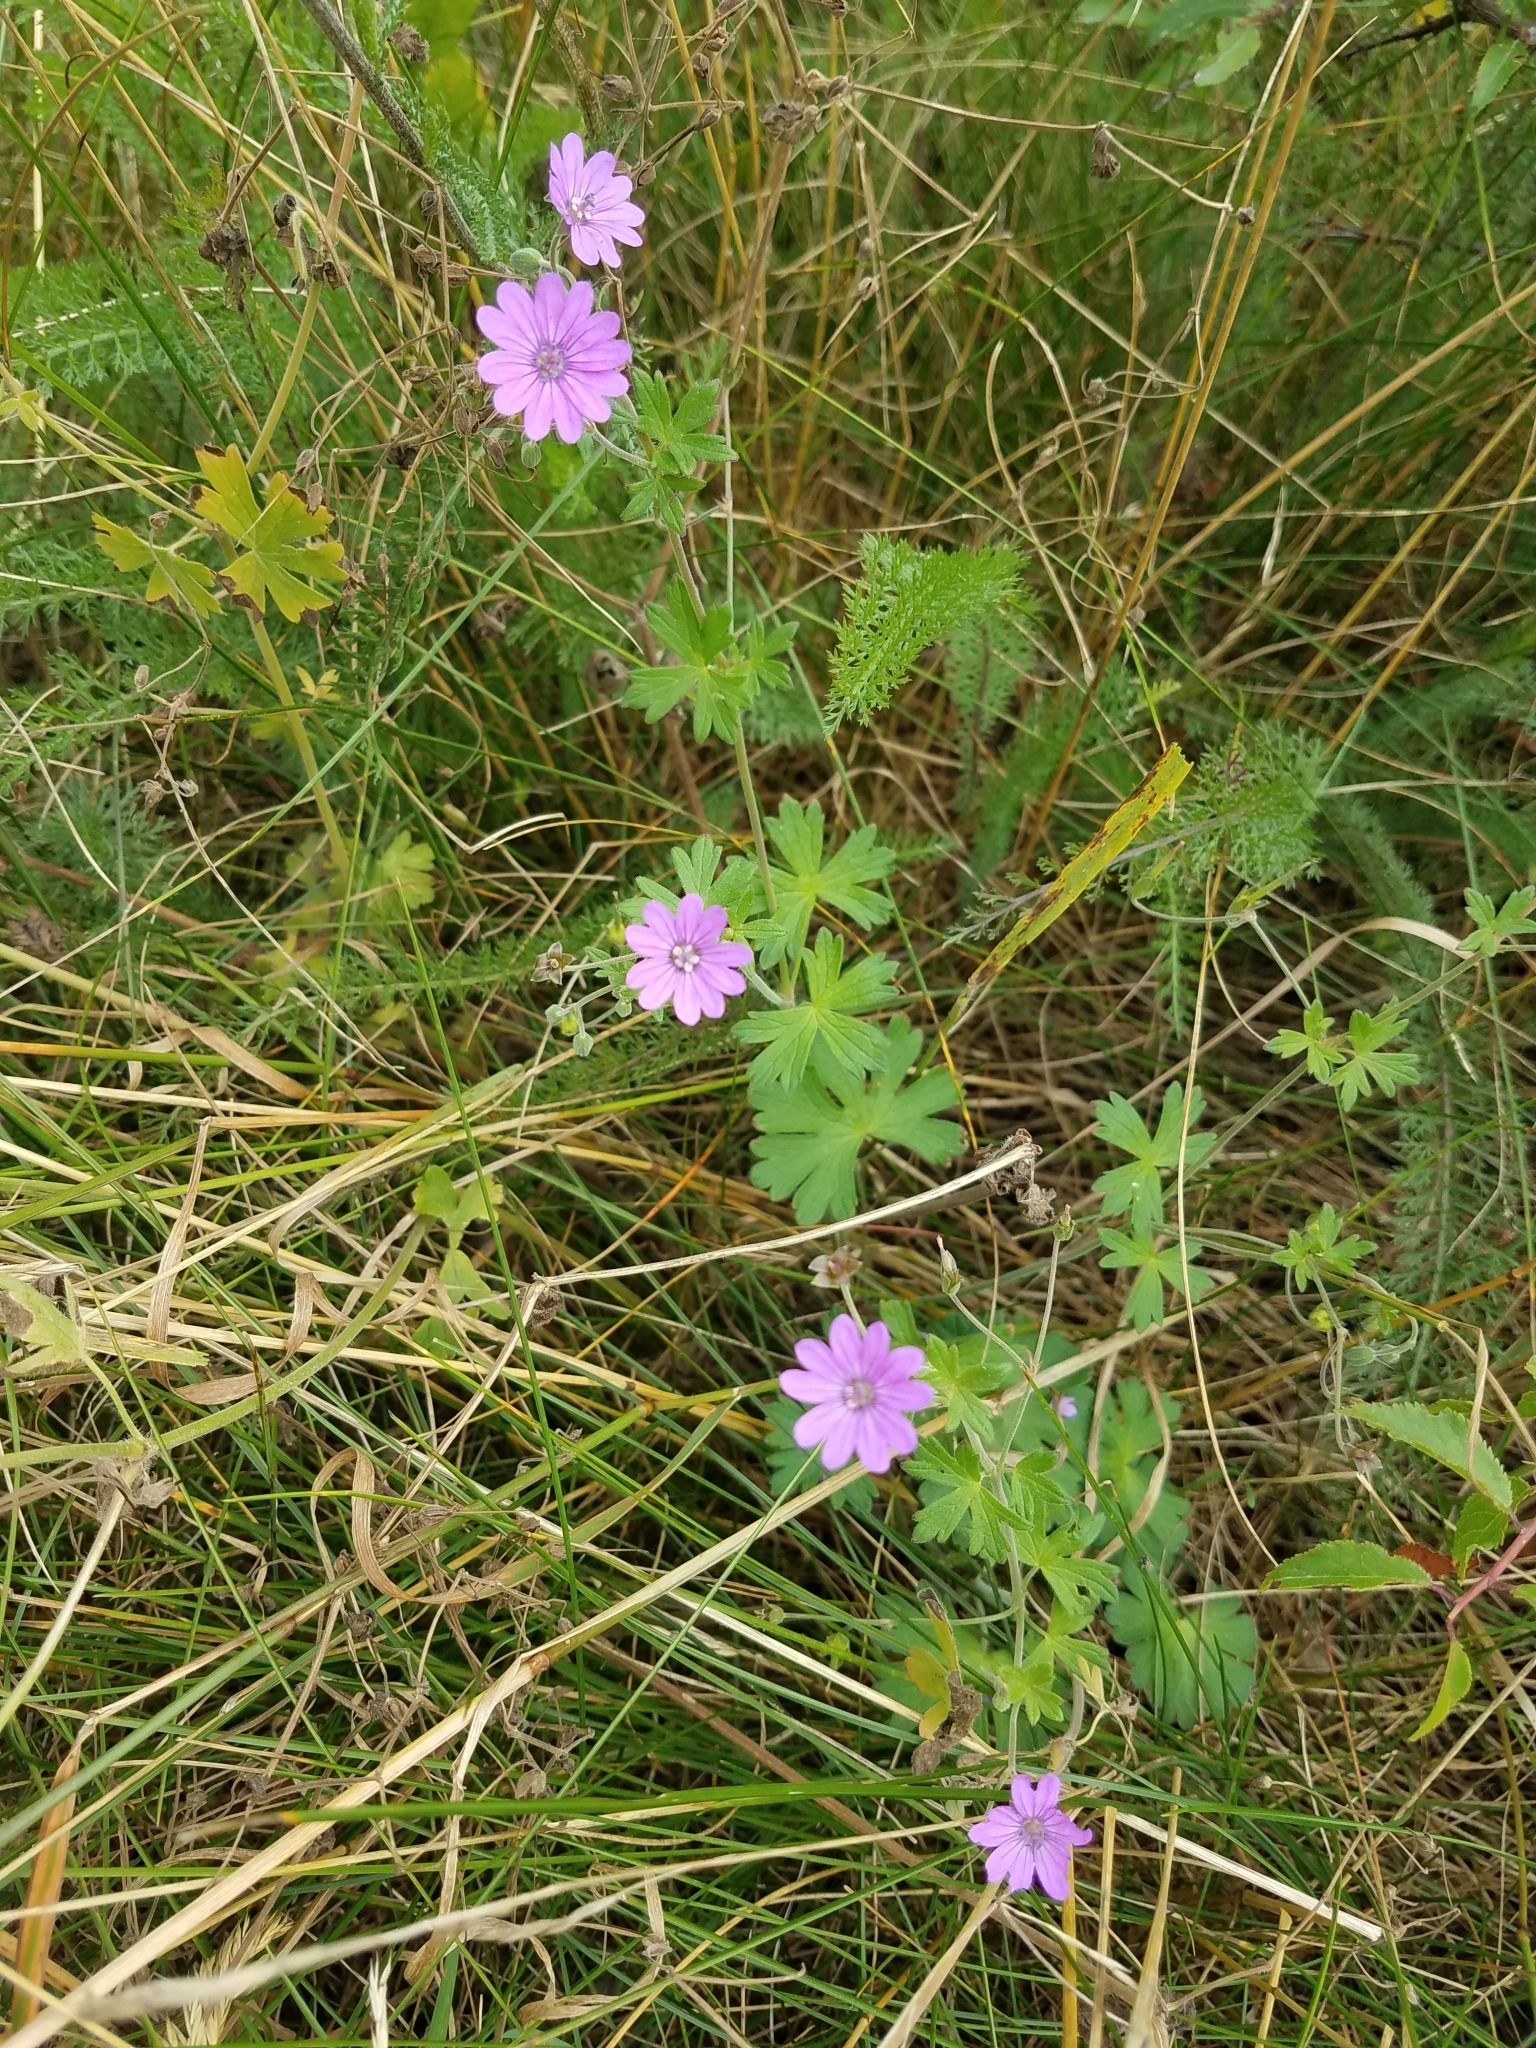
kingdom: Plantae
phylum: Tracheophyta
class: Magnoliopsida
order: Geraniales
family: Geraniaceae
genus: Geranium
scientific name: Geranium molle
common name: Dove's-foot crane's-bill
